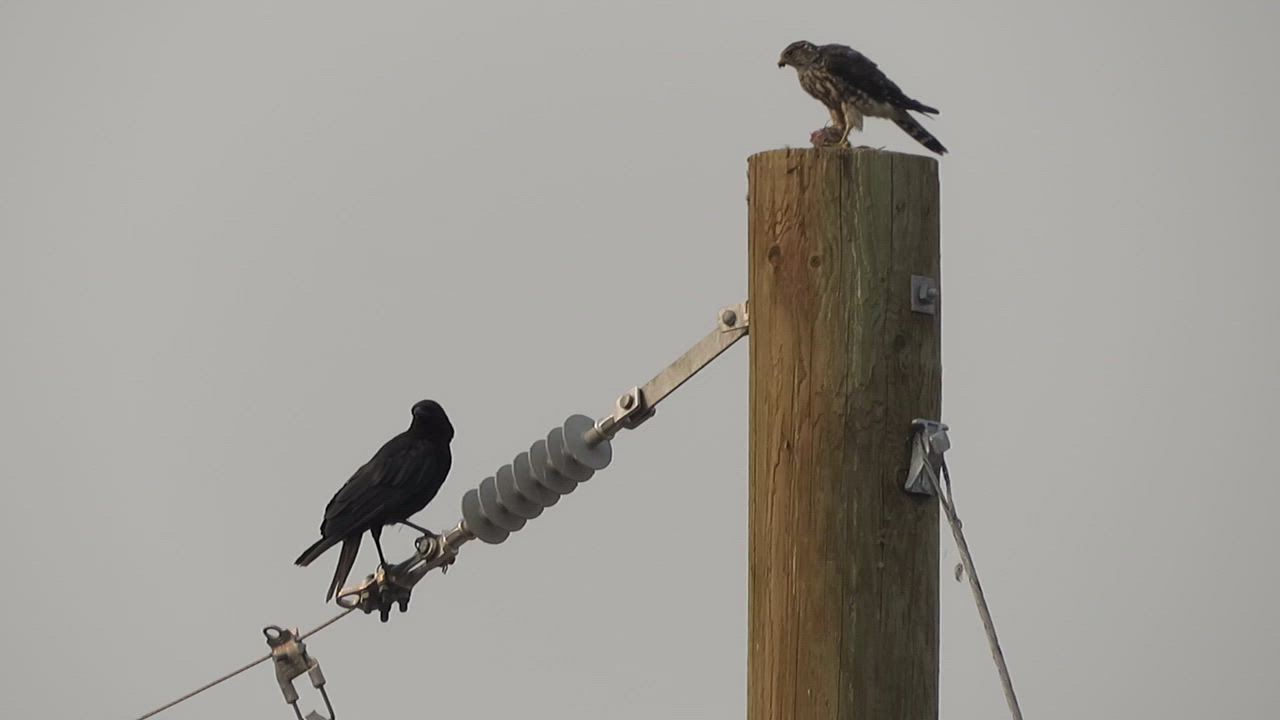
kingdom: Animalia
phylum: Chordata
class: Aves
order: Falconiformes
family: Falconidae
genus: Falco
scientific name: Falco columbarius
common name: Merlin
